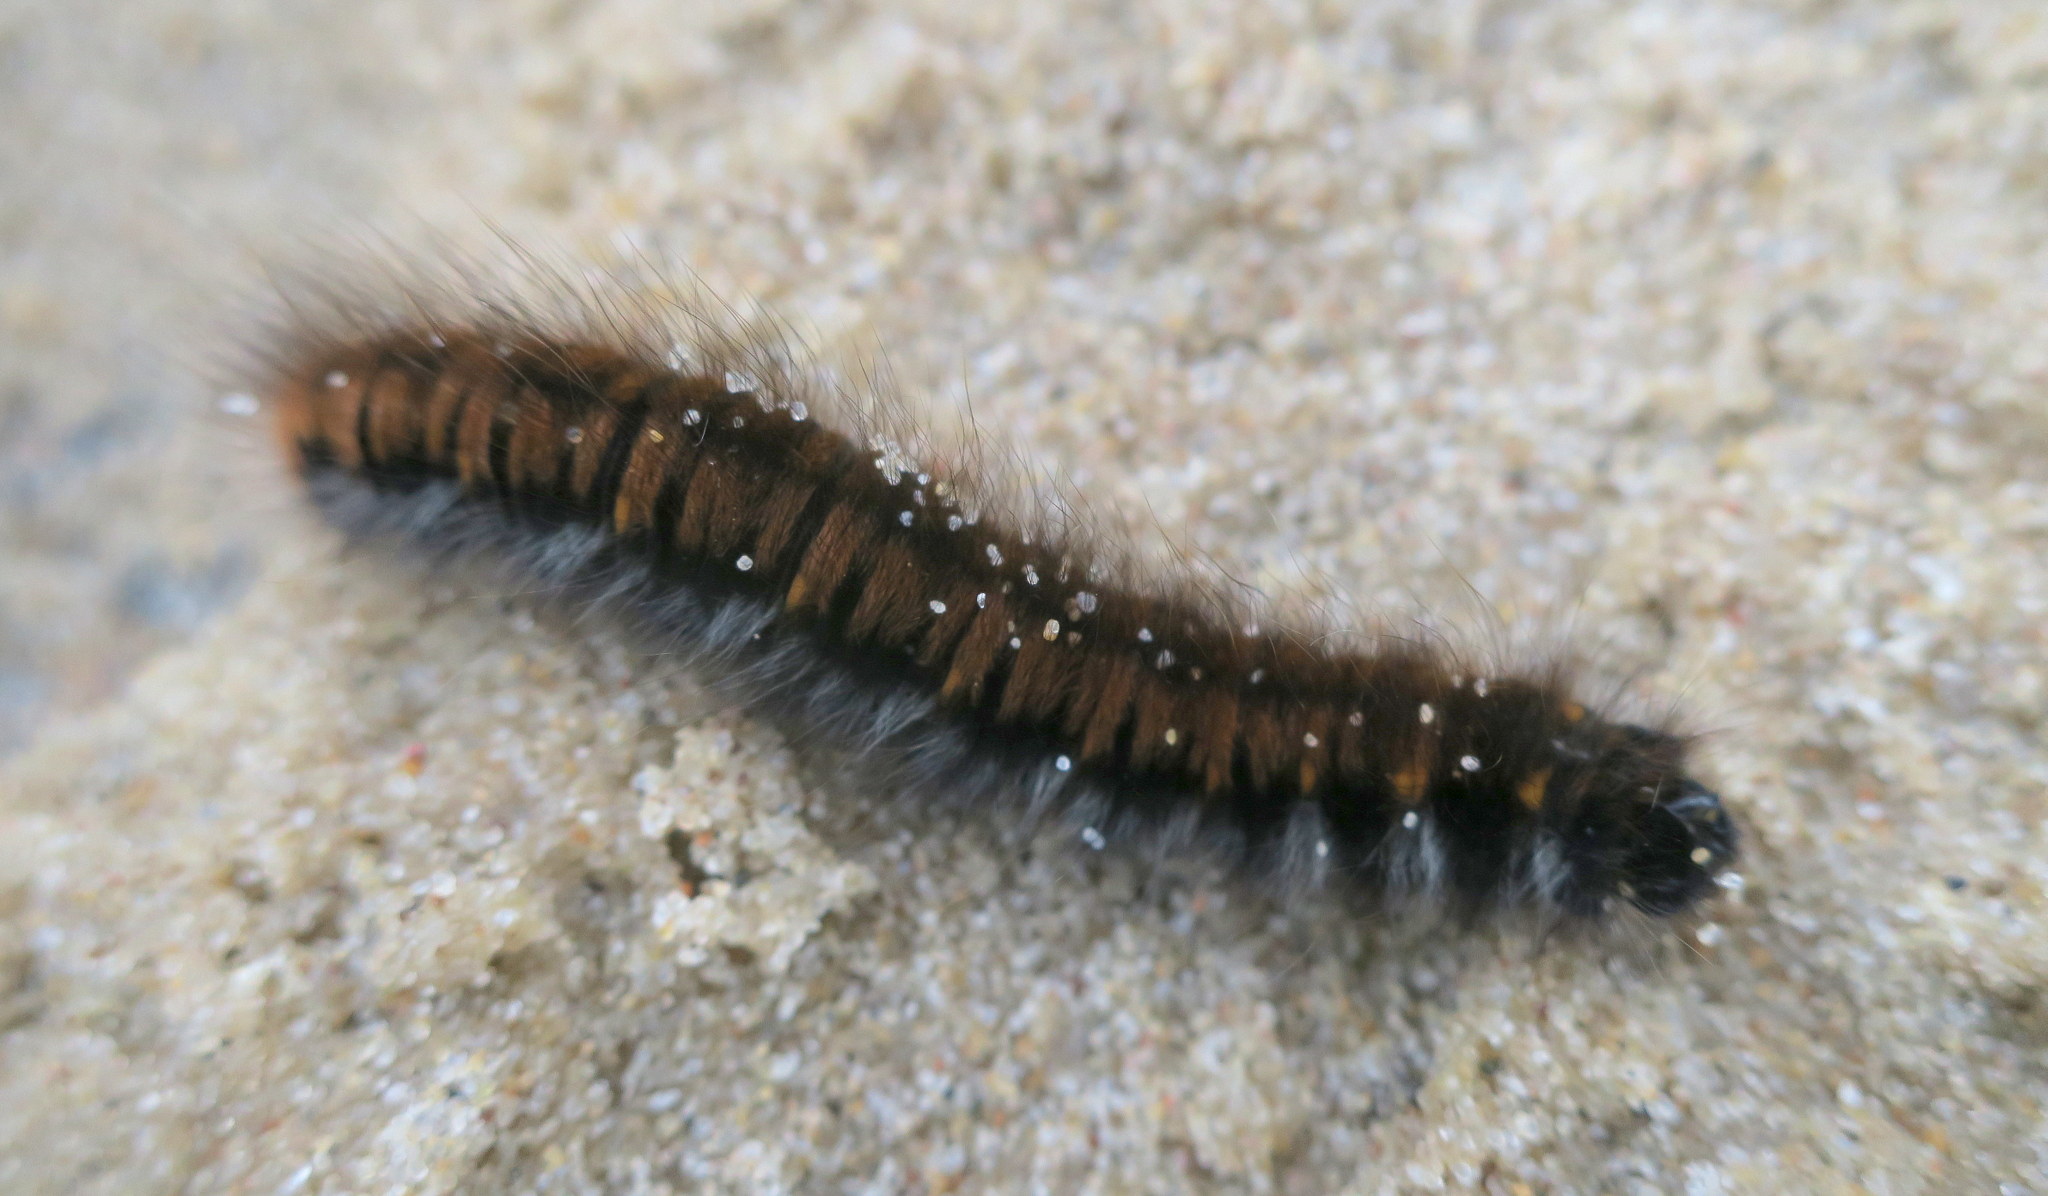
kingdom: Animalia
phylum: Arthropoda
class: Insecta
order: Lepidoptera
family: Lasiocampidae
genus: Macrothylacia
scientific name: Macrothylacia rubi
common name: Fox moth
